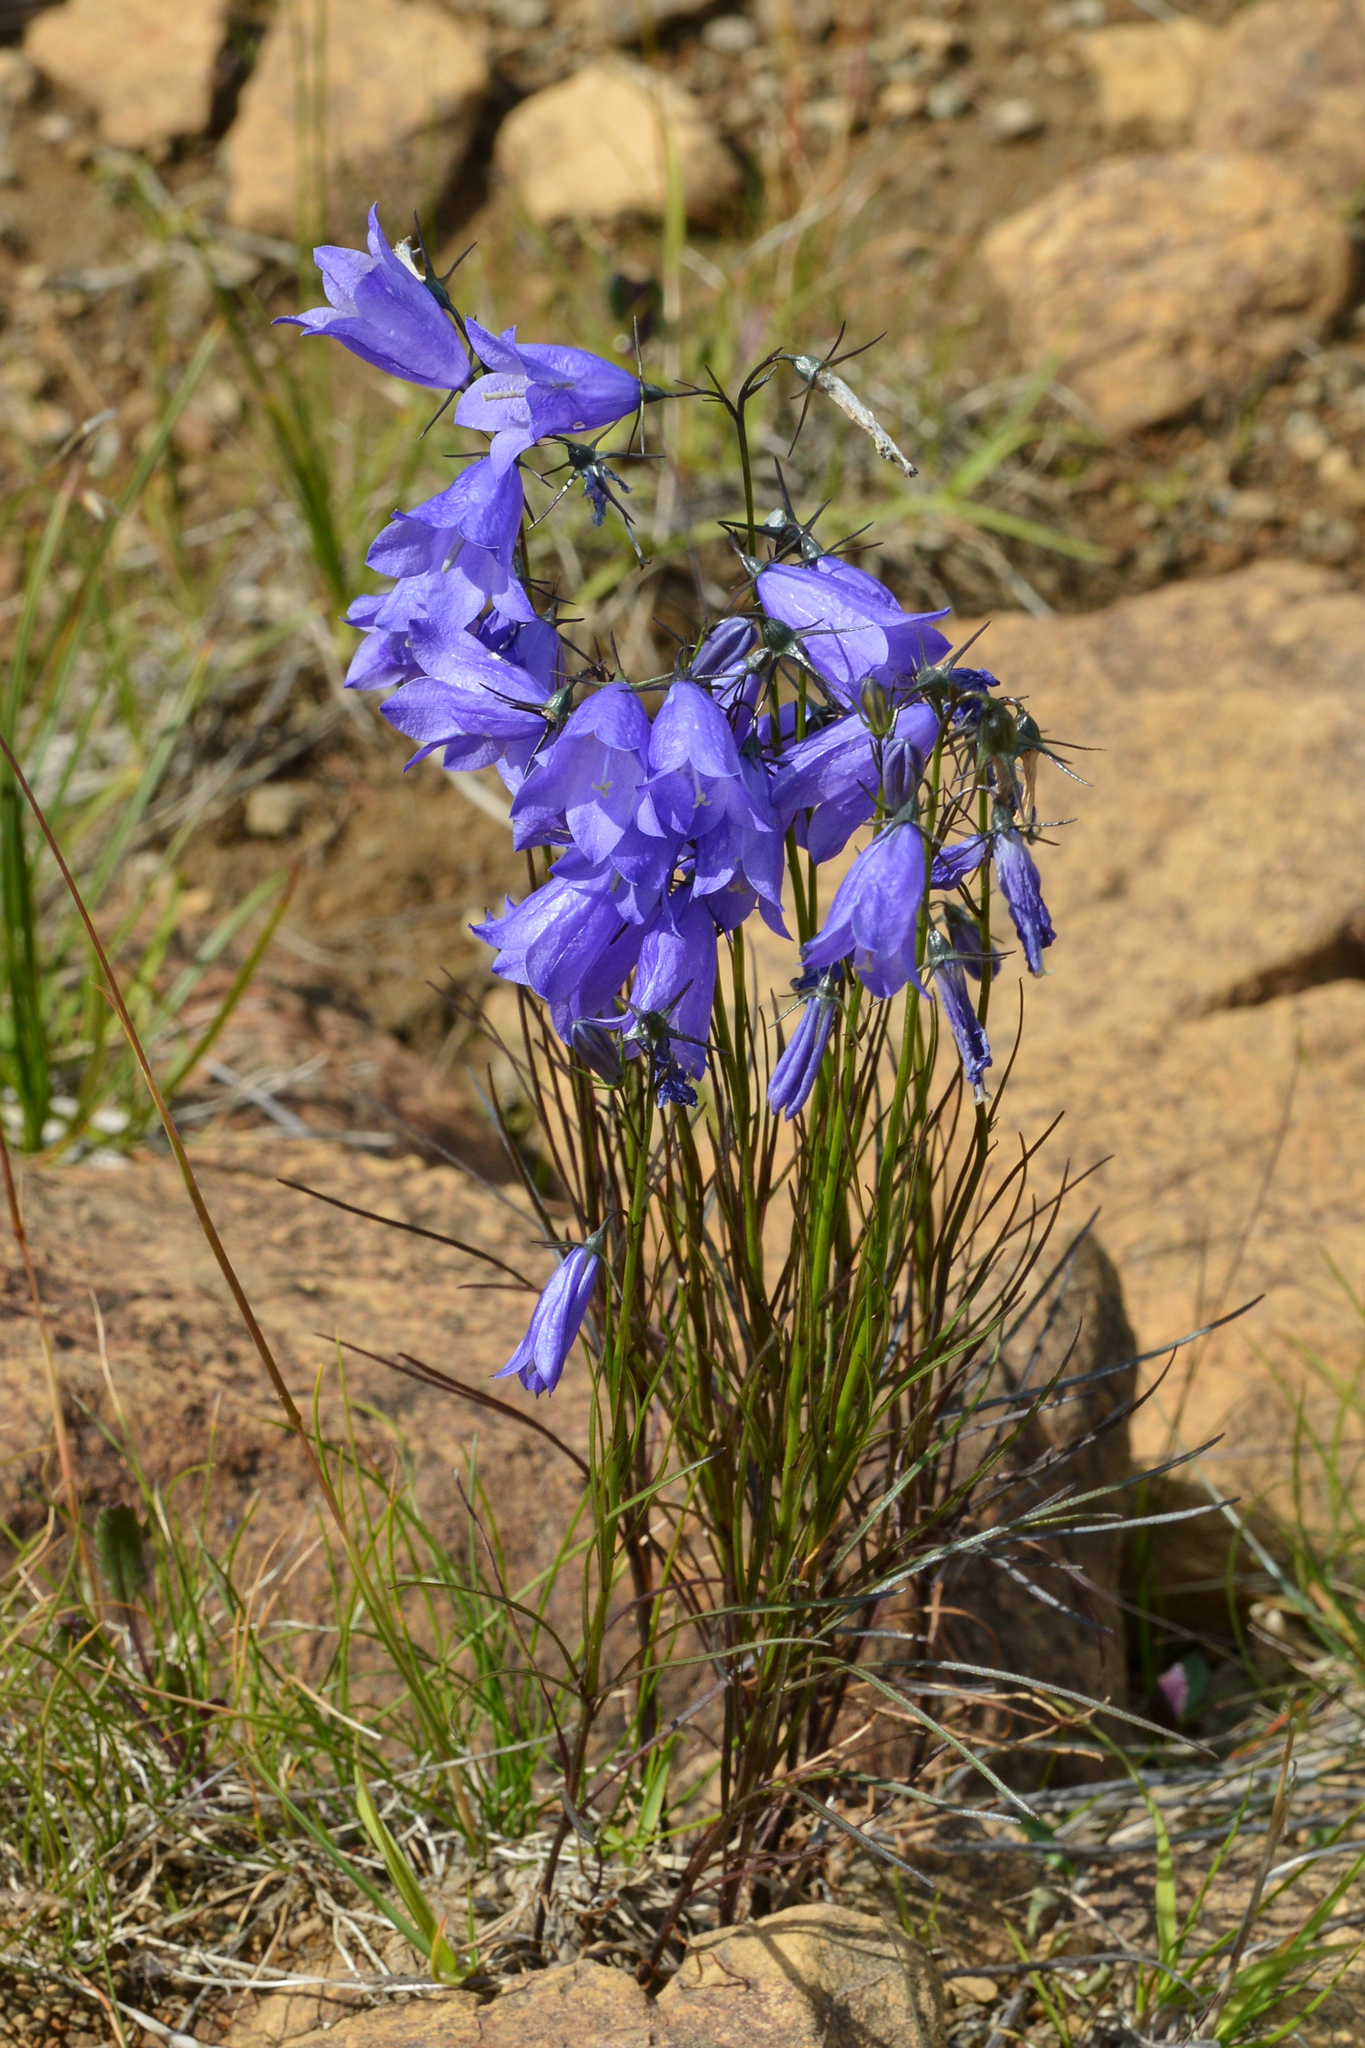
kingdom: Plantae
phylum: Tracheophyta
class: Magnoliopsida
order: Asterales
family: Campanulaceae
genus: Campanula
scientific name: Campanula giesekiana
